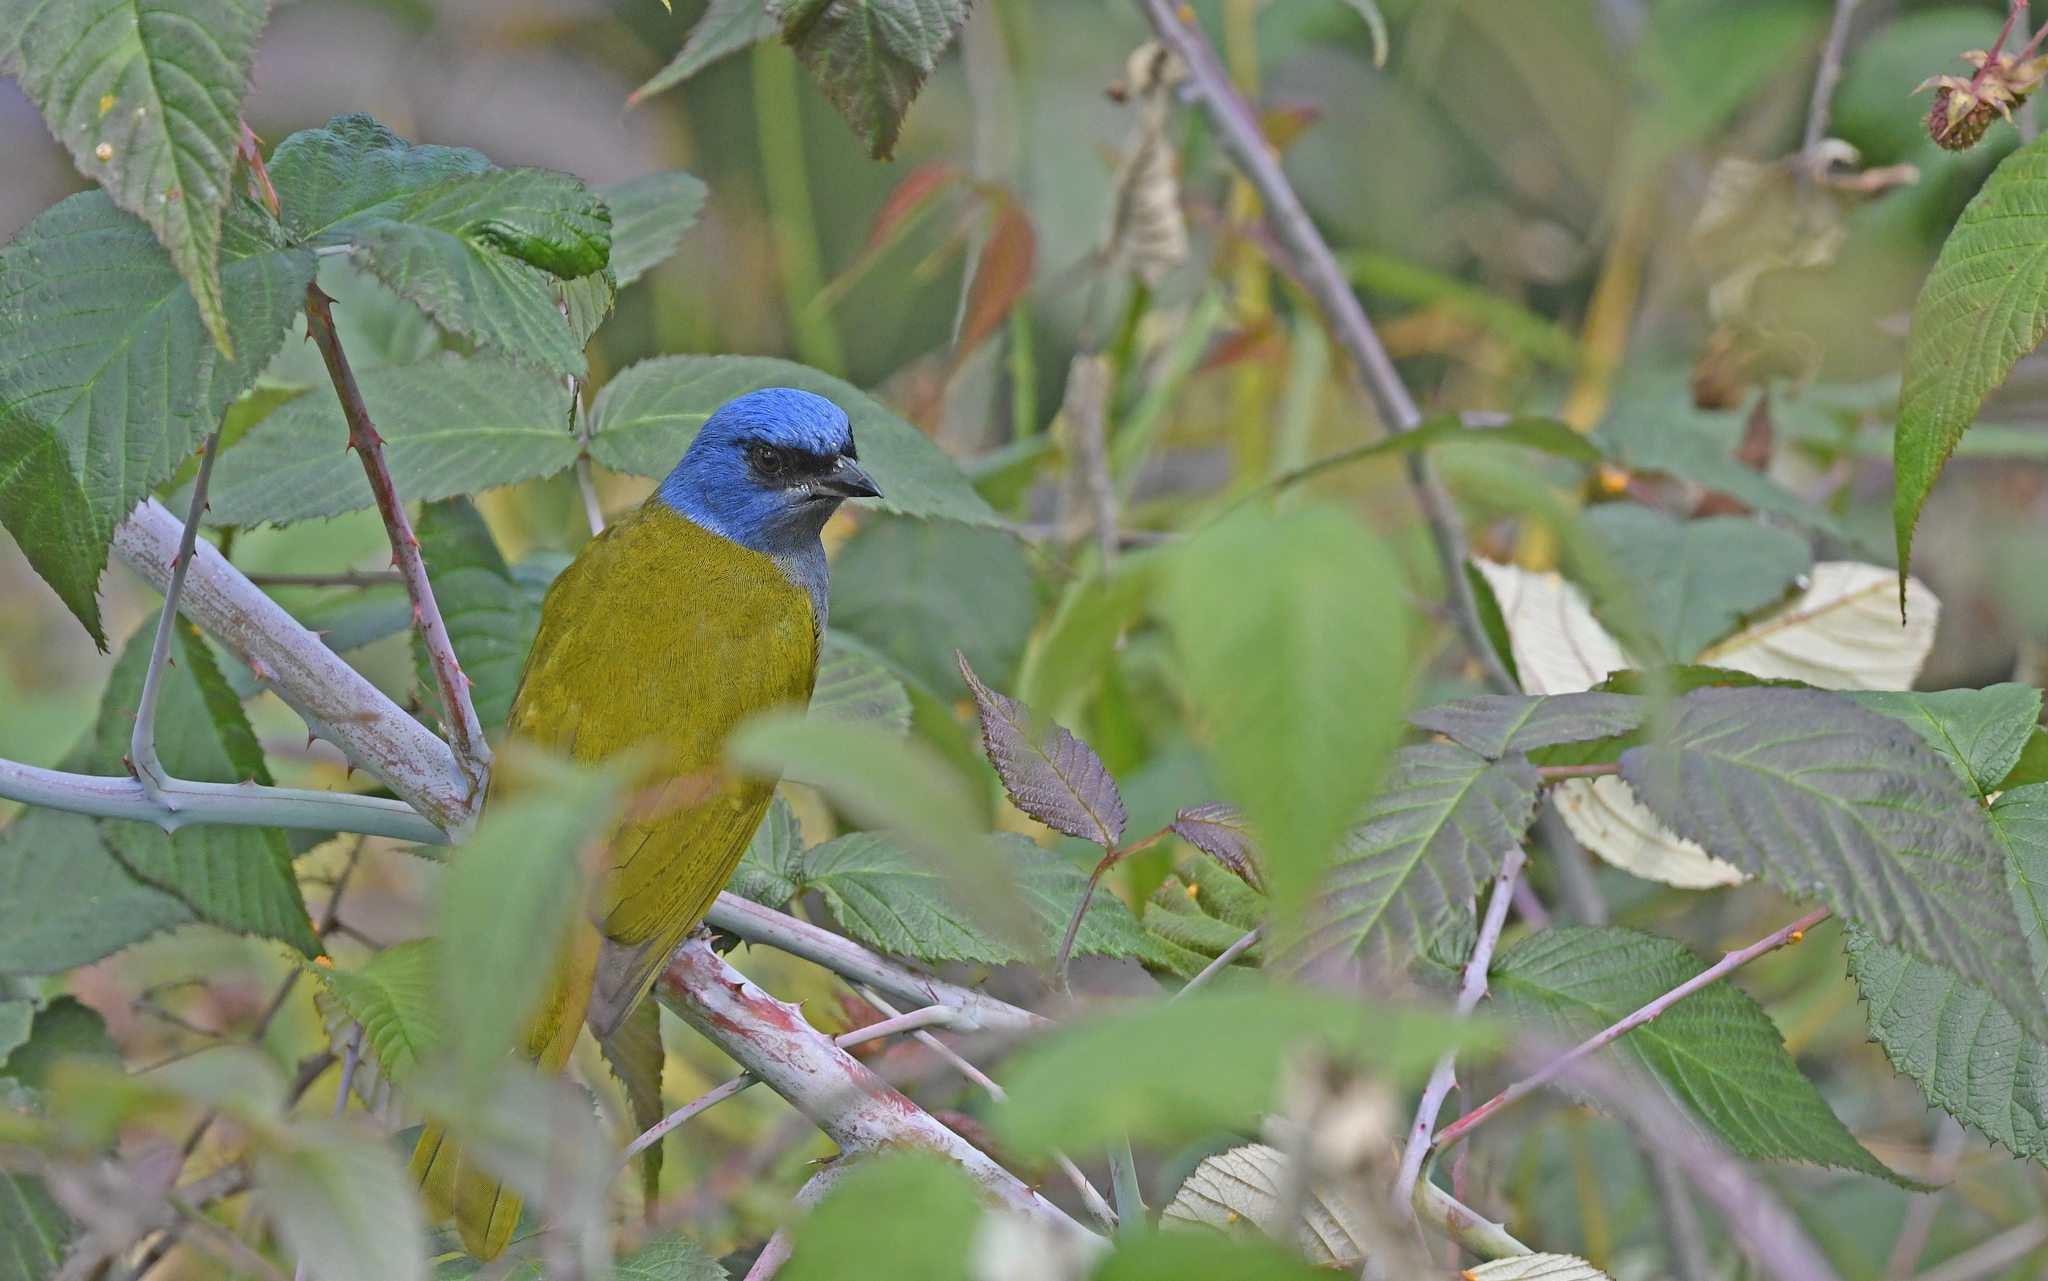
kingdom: Animalia
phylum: Chordata
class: Aves
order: Passeriformes
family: Thraupidae
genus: Sporathraupis
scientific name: Sporathraupis cyanocephala
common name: Blue-capped tanager
